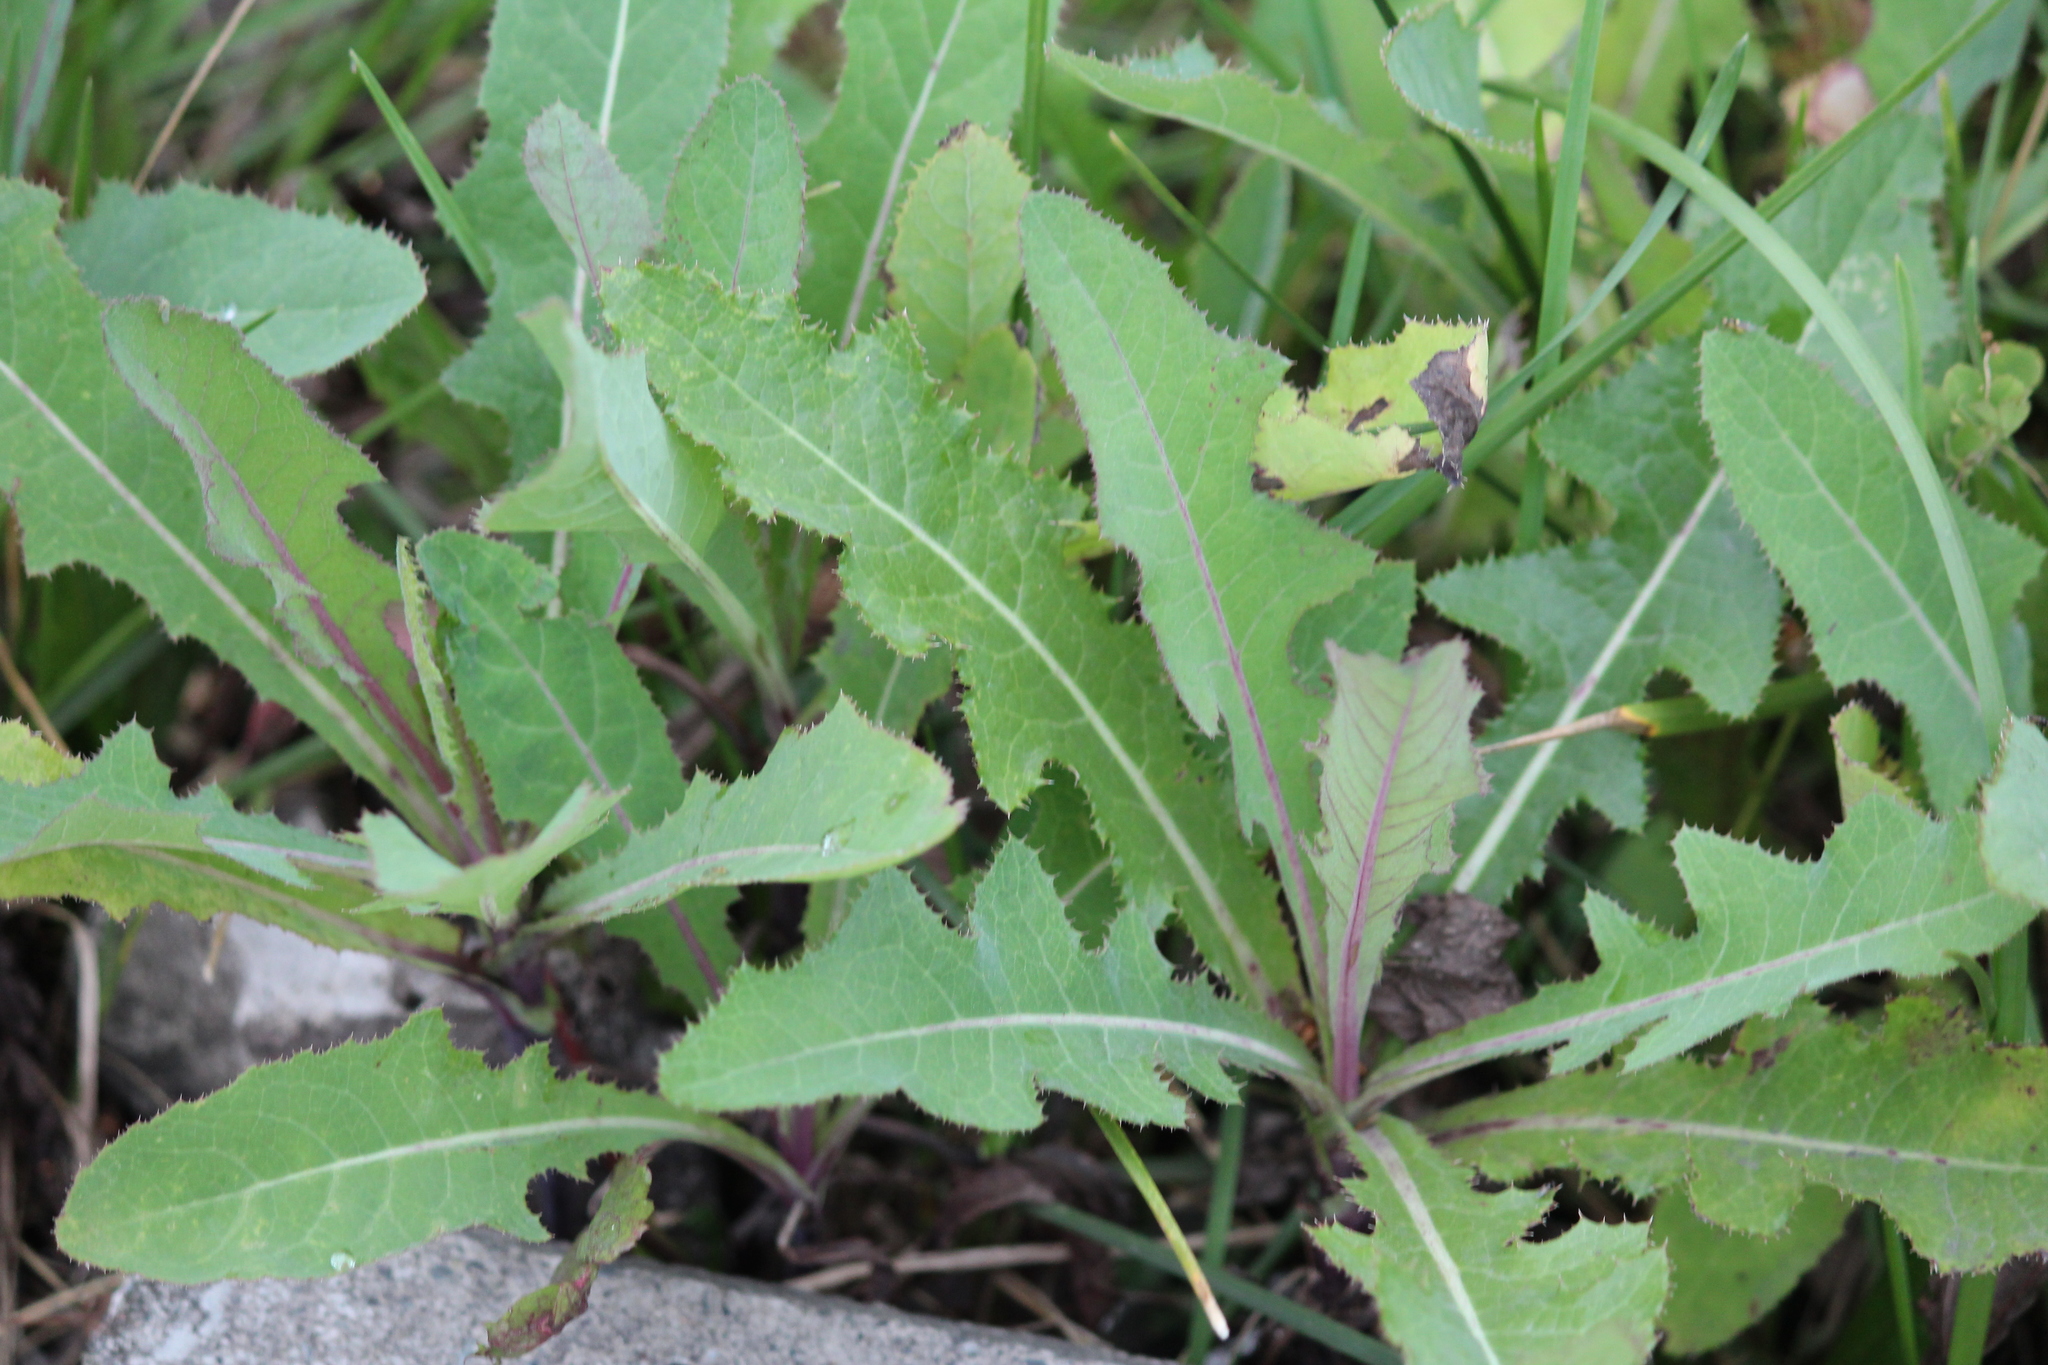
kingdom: Plantae
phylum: Tracheophyta
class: Magnoliopsida
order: Asterales
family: Asteraceae
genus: Sonchus
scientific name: Sonchus arvensis
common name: Perennial sow-thistle
